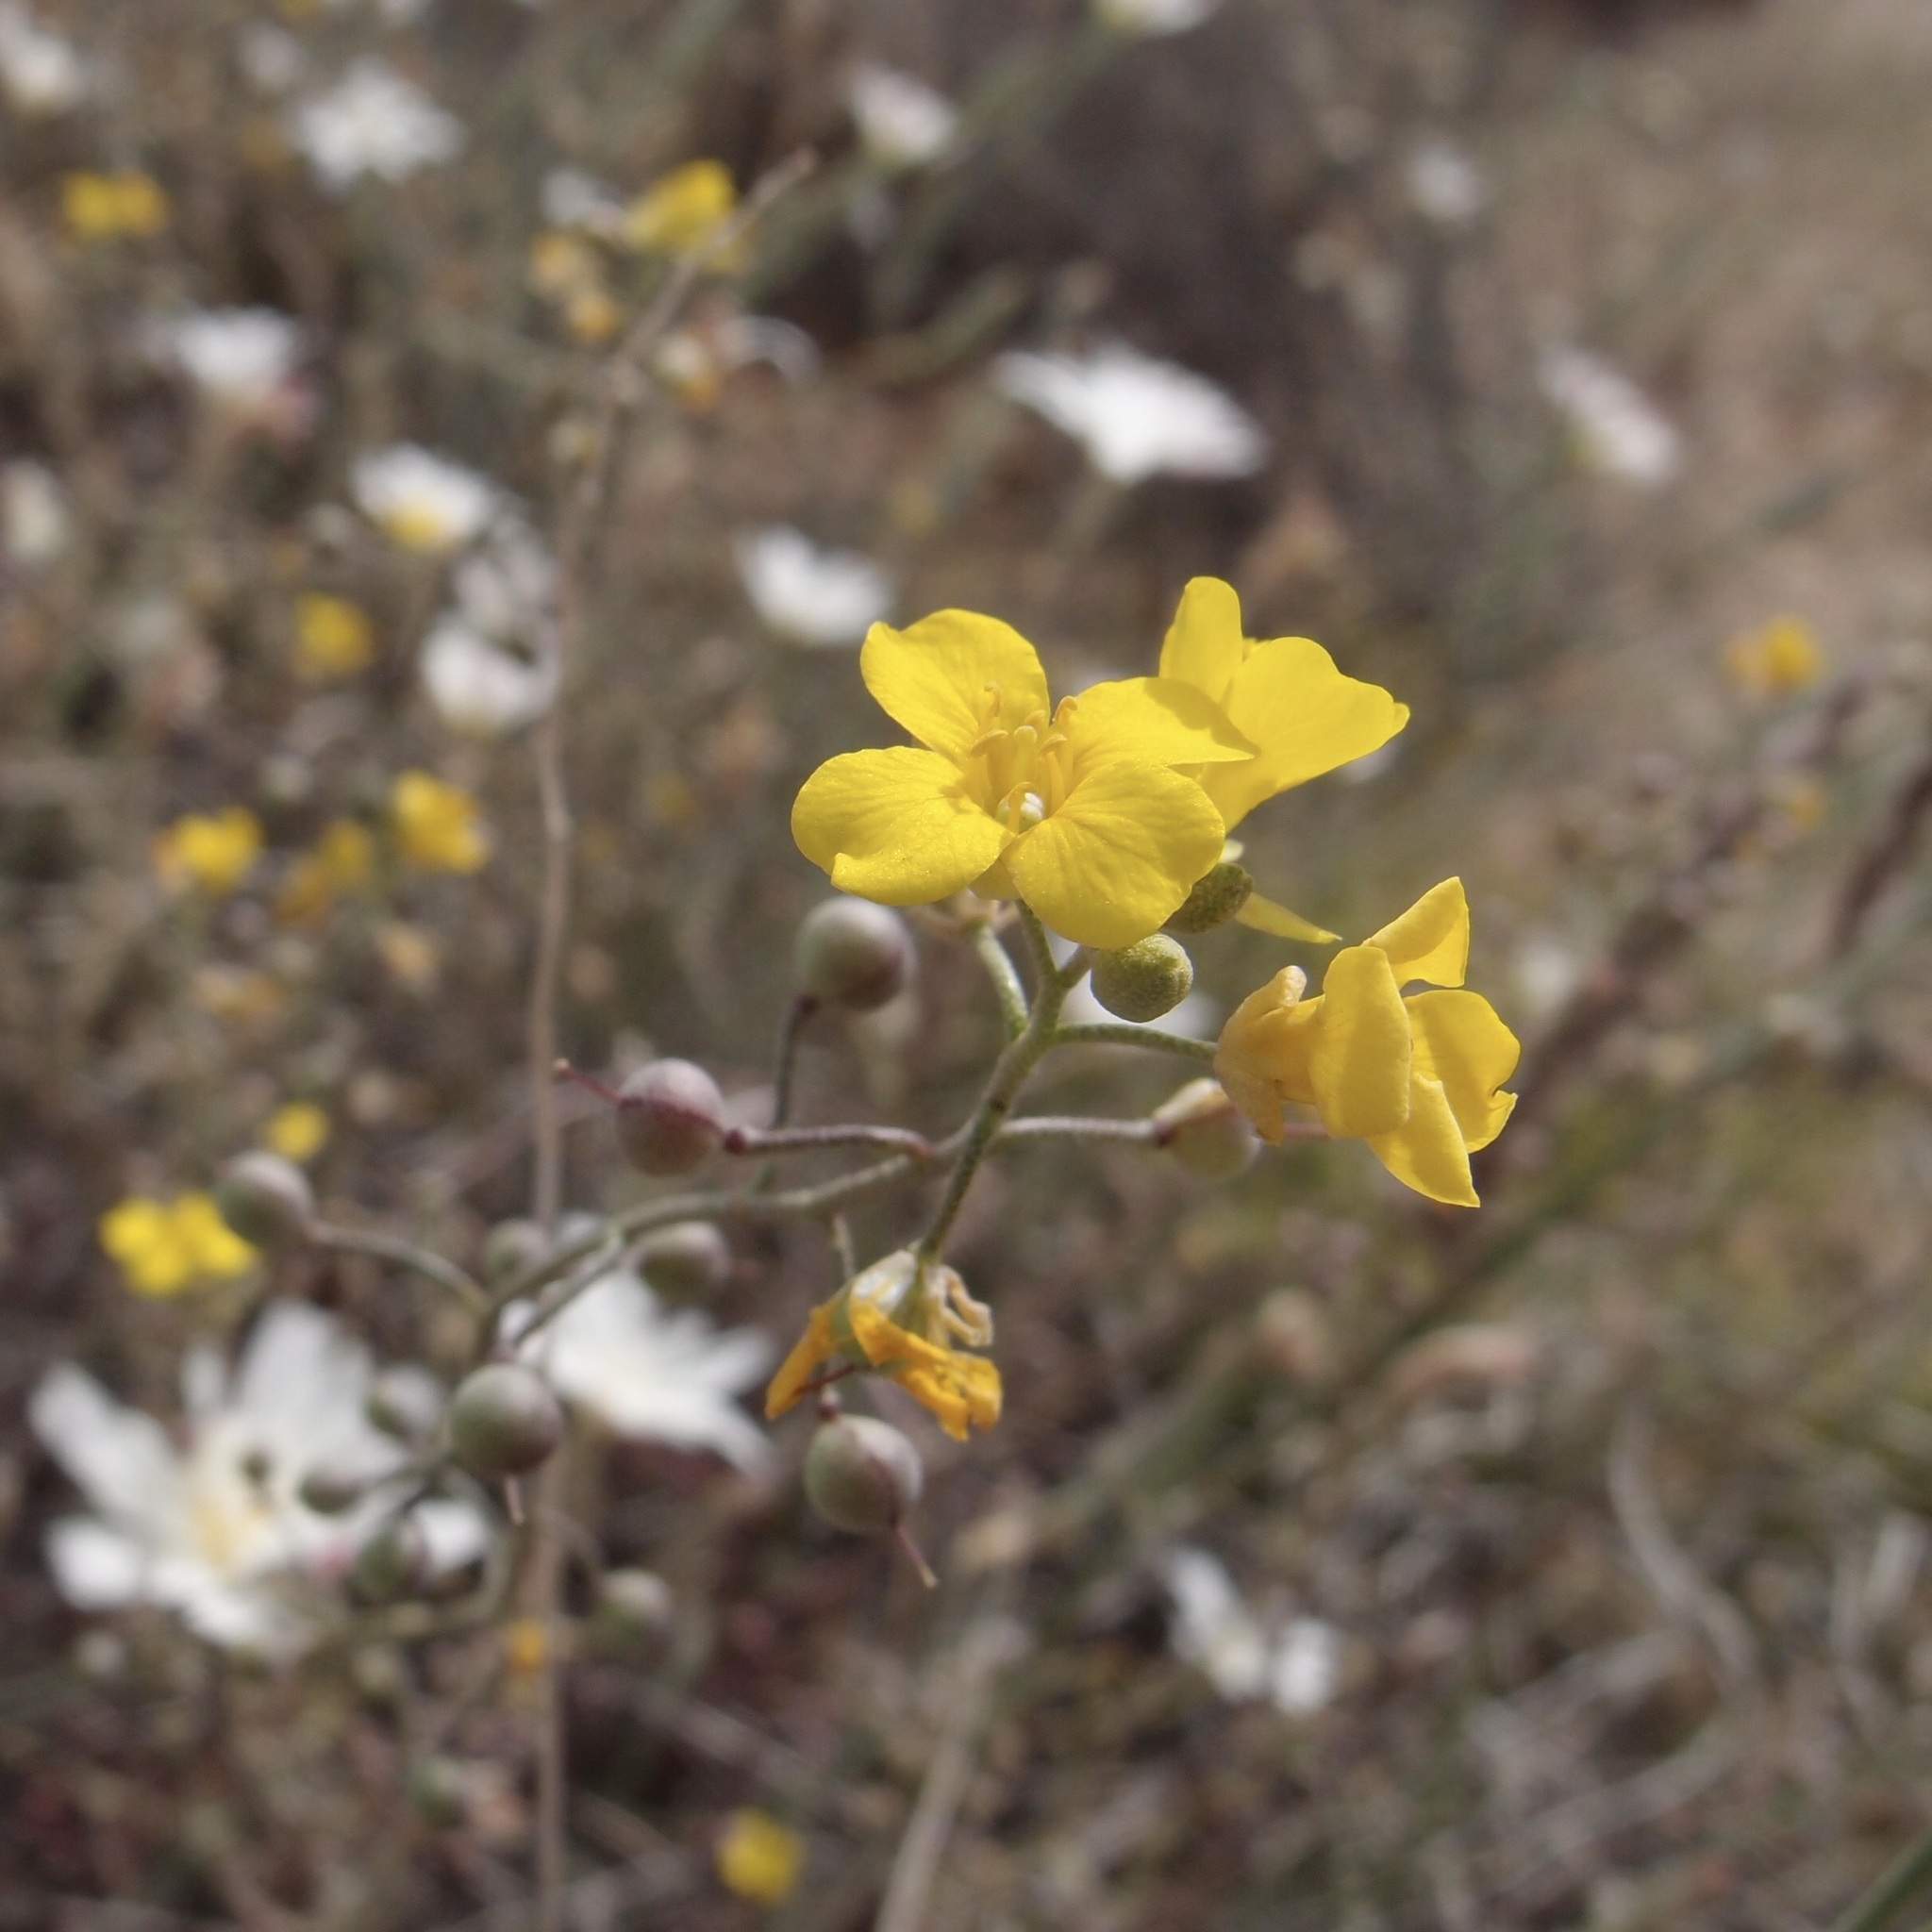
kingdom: Plantae
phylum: Tracheophyta
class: Magnoliopsida
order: Brassicales
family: Brassicaceae
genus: Physaria
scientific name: Physaria tenella
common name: Moapa bladderpod
